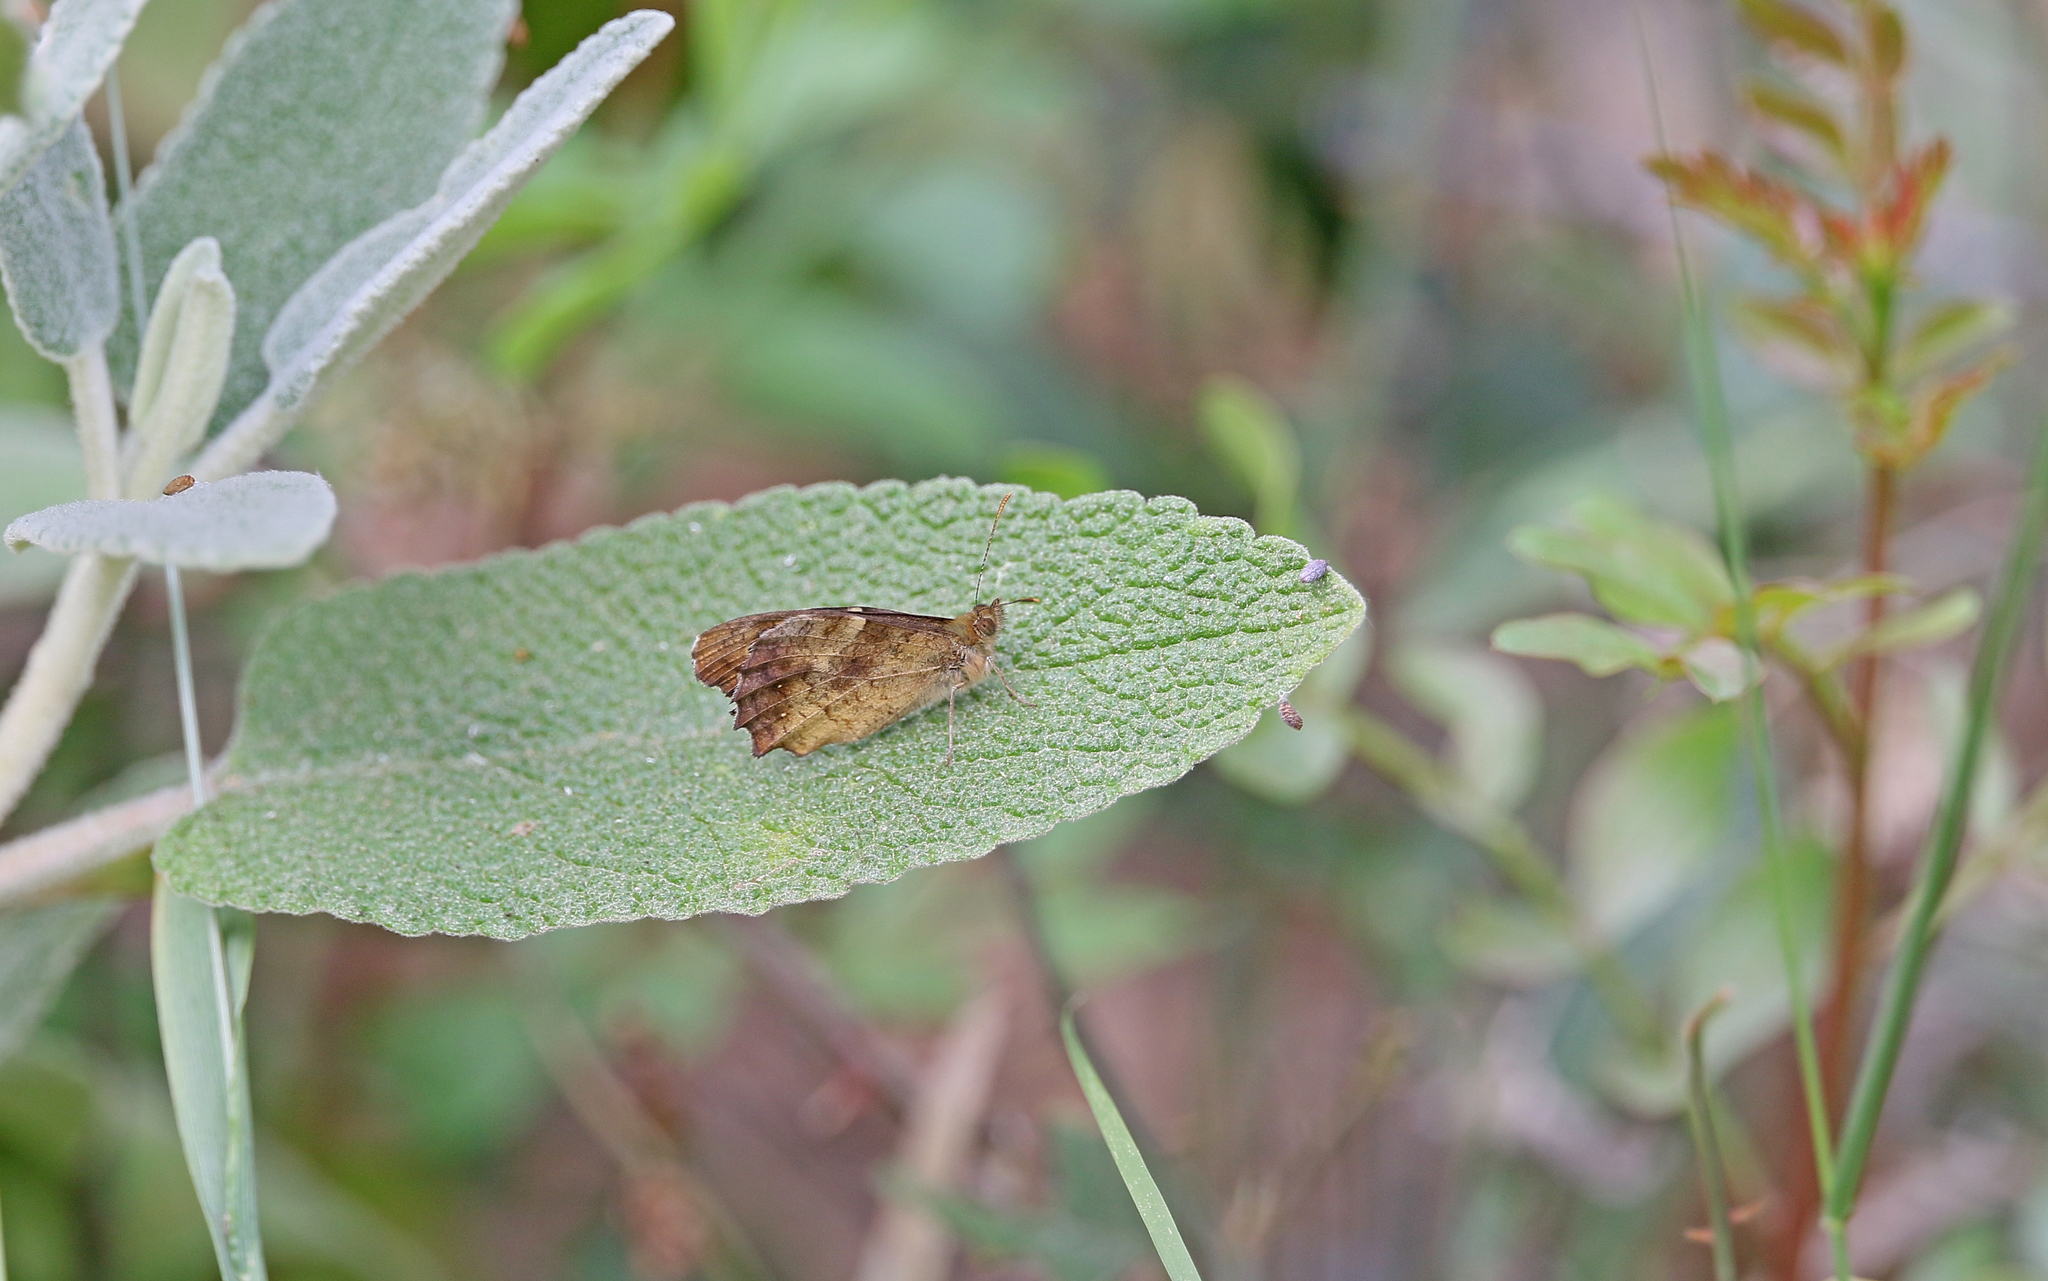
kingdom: Animalia
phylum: Arthropoda
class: Insecta
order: Lepidoptera
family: Nymphalidae
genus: Pararge
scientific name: Pararge aegeria
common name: Speckled wood
